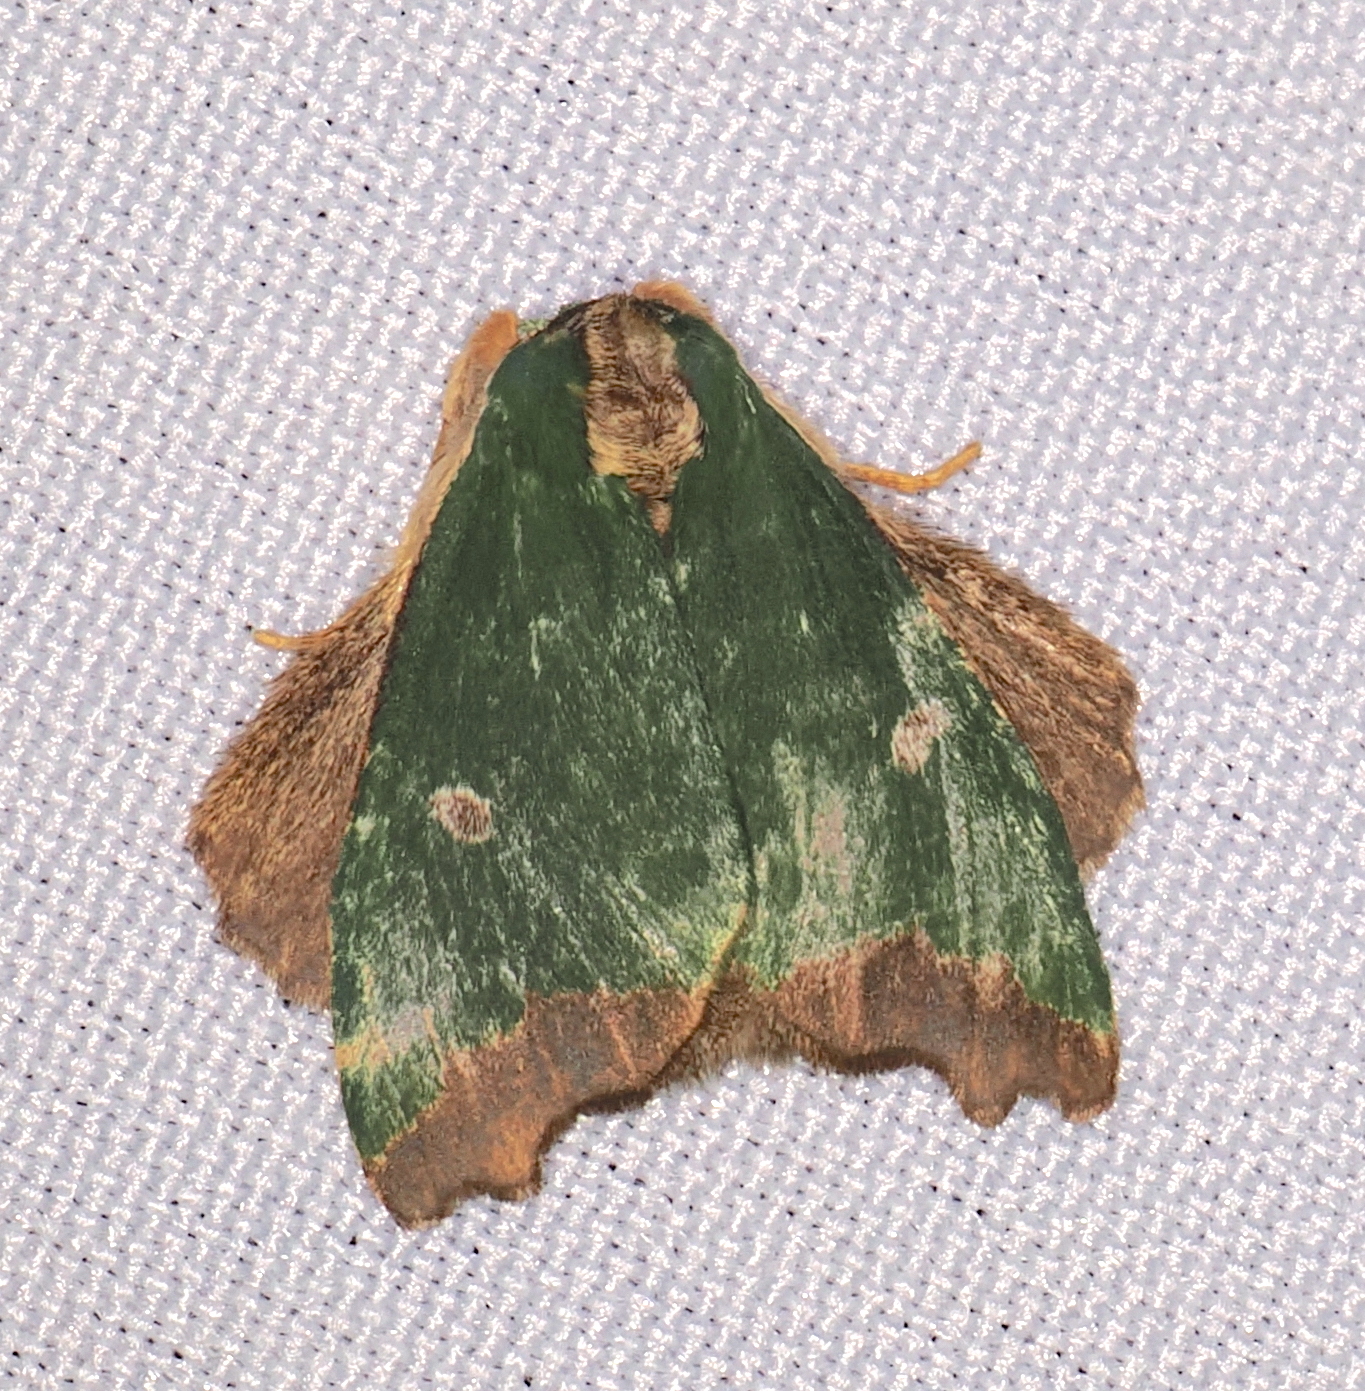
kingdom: Animalia
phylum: Arthropoda
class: Insecta
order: Lepidoptera
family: Notodontidae
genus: Rosema
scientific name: Rosema epigena
